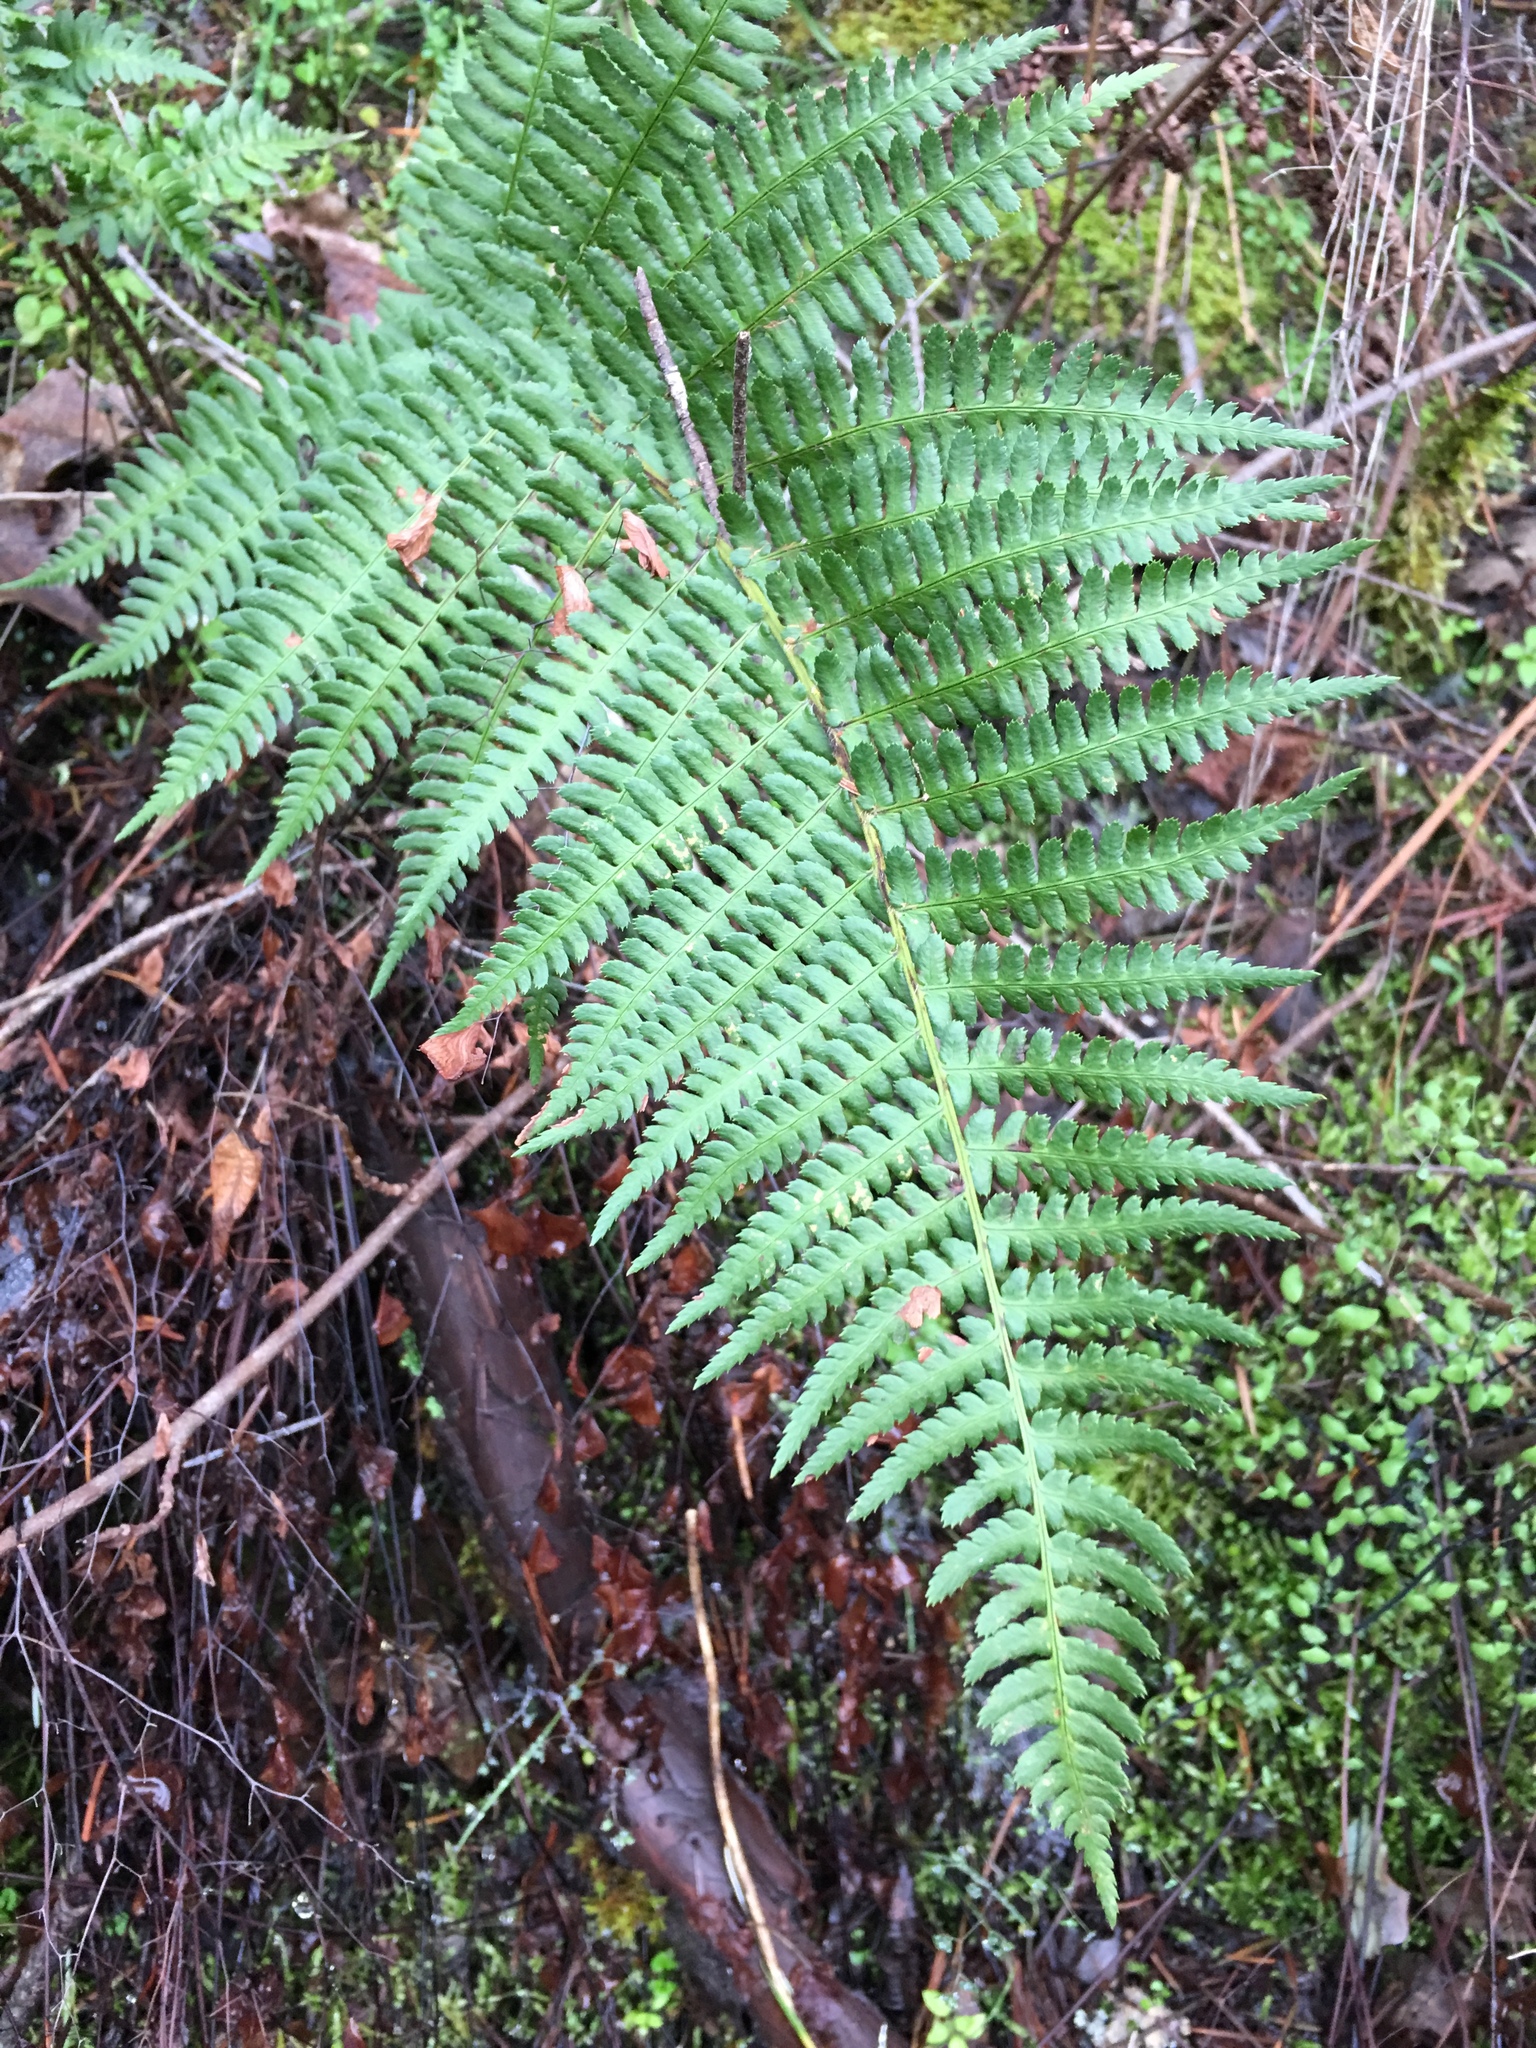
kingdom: Plantae
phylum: Tracheophyta
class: Polypodiopsida
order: Polypodiales
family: Dryopteridaceae
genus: Dryopteris
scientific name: Dryopteris arguta
